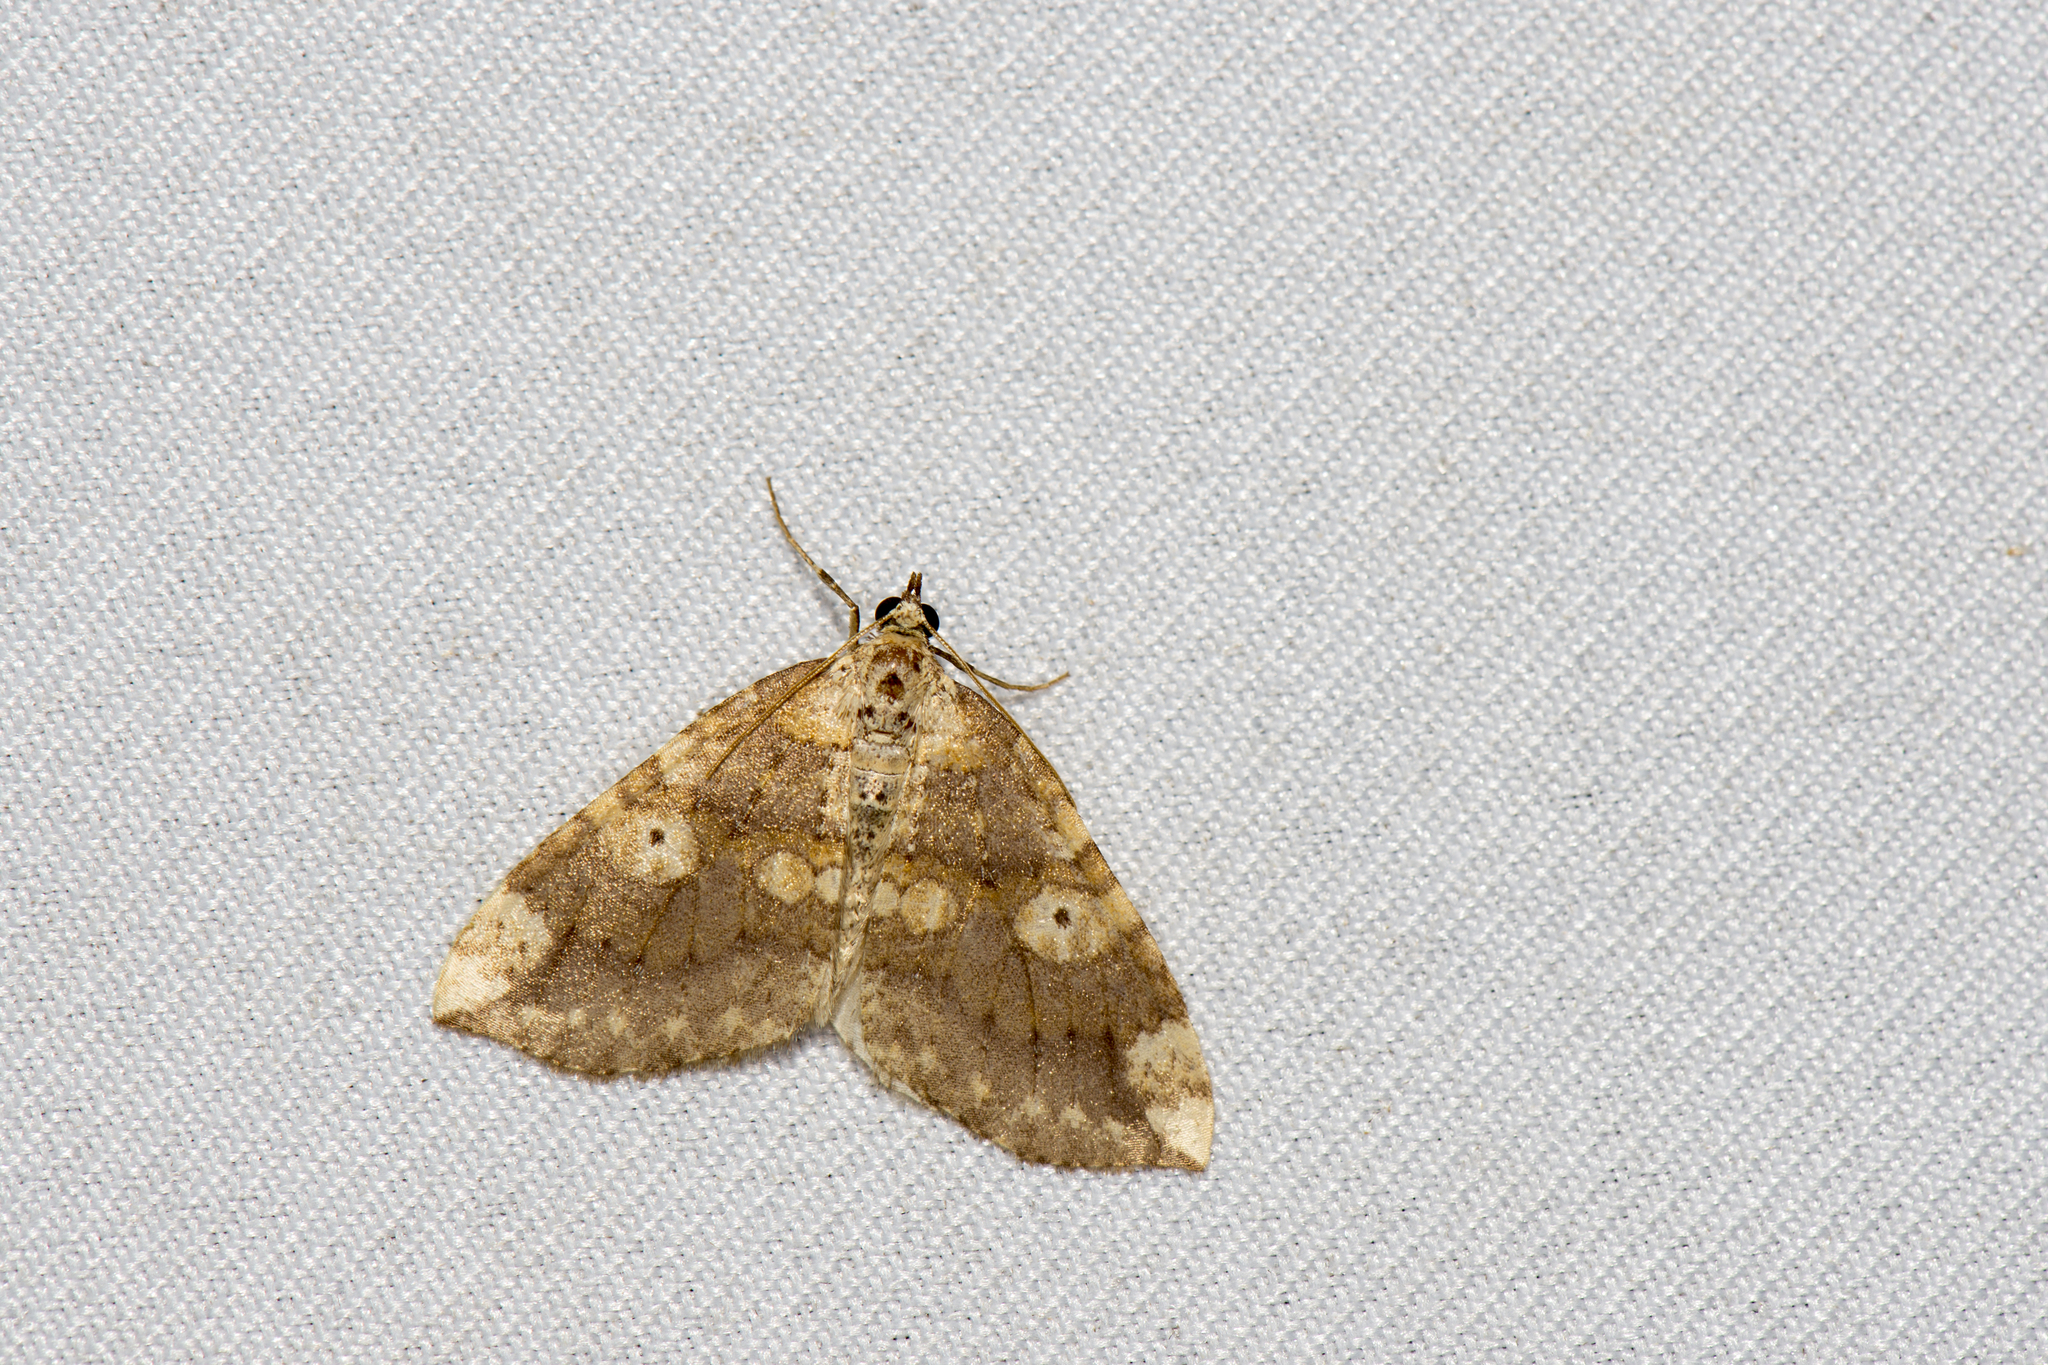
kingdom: Animalia
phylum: Arthropoda
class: Insecta
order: Lepidoptera
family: Geometridae
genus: Idiotephria
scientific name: Idiotephria nakatomii
